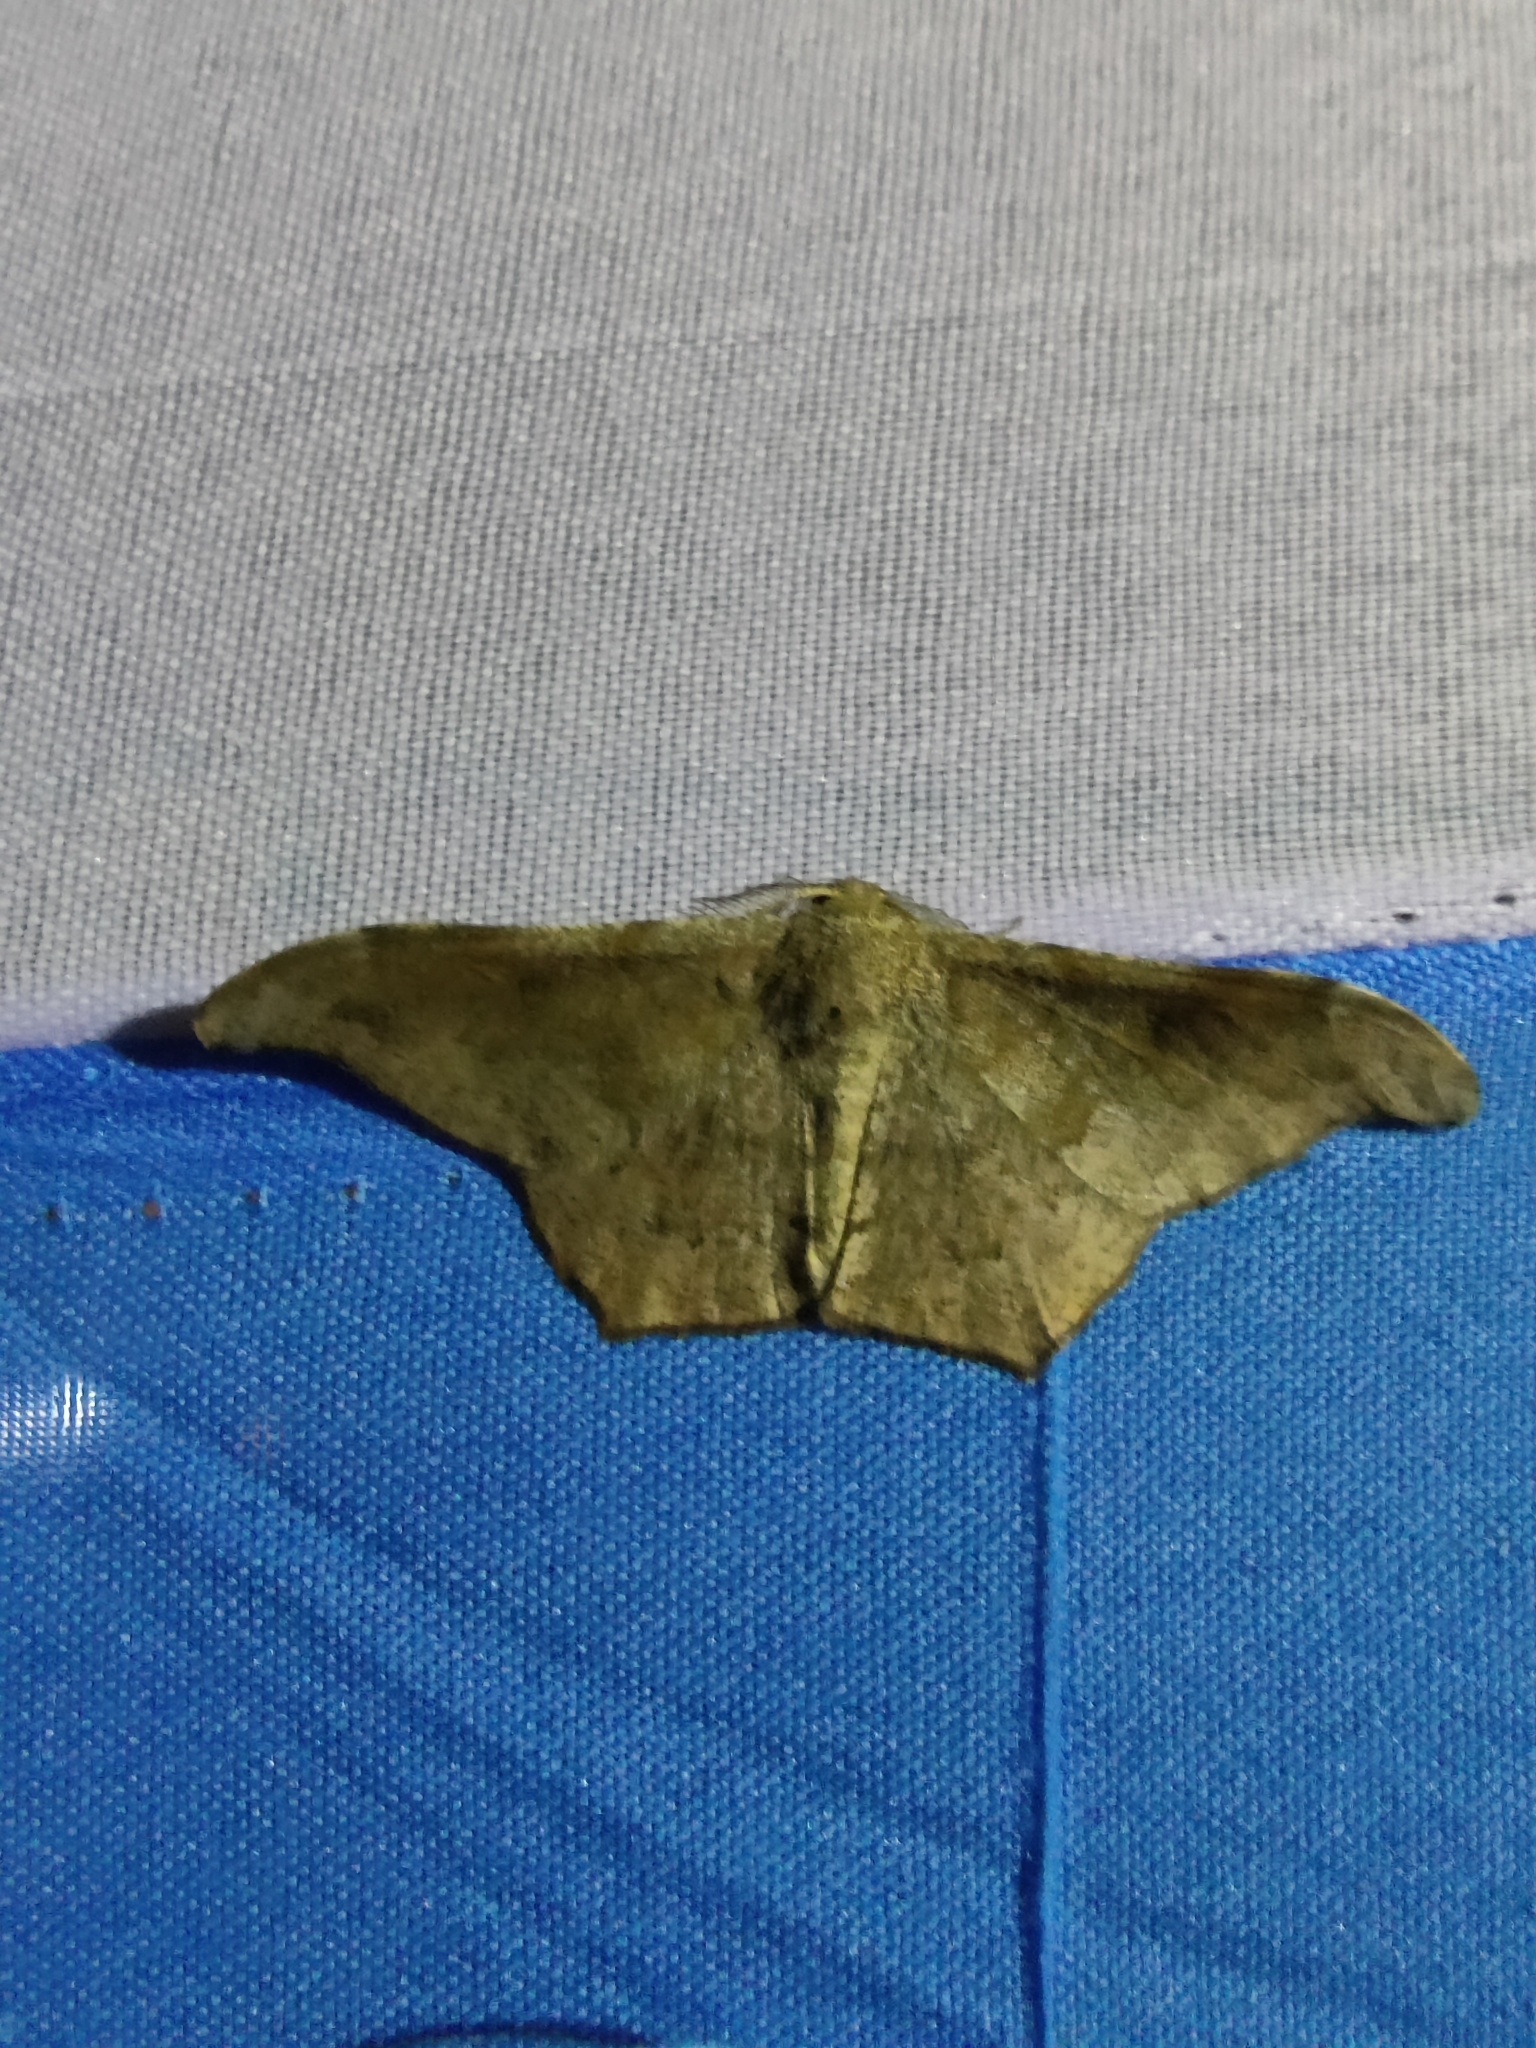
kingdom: Animalia
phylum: Arthropoda
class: Insecta
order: Lepidoptera
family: Geometridae
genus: Hyposidra
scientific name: Hyposidra talaca
